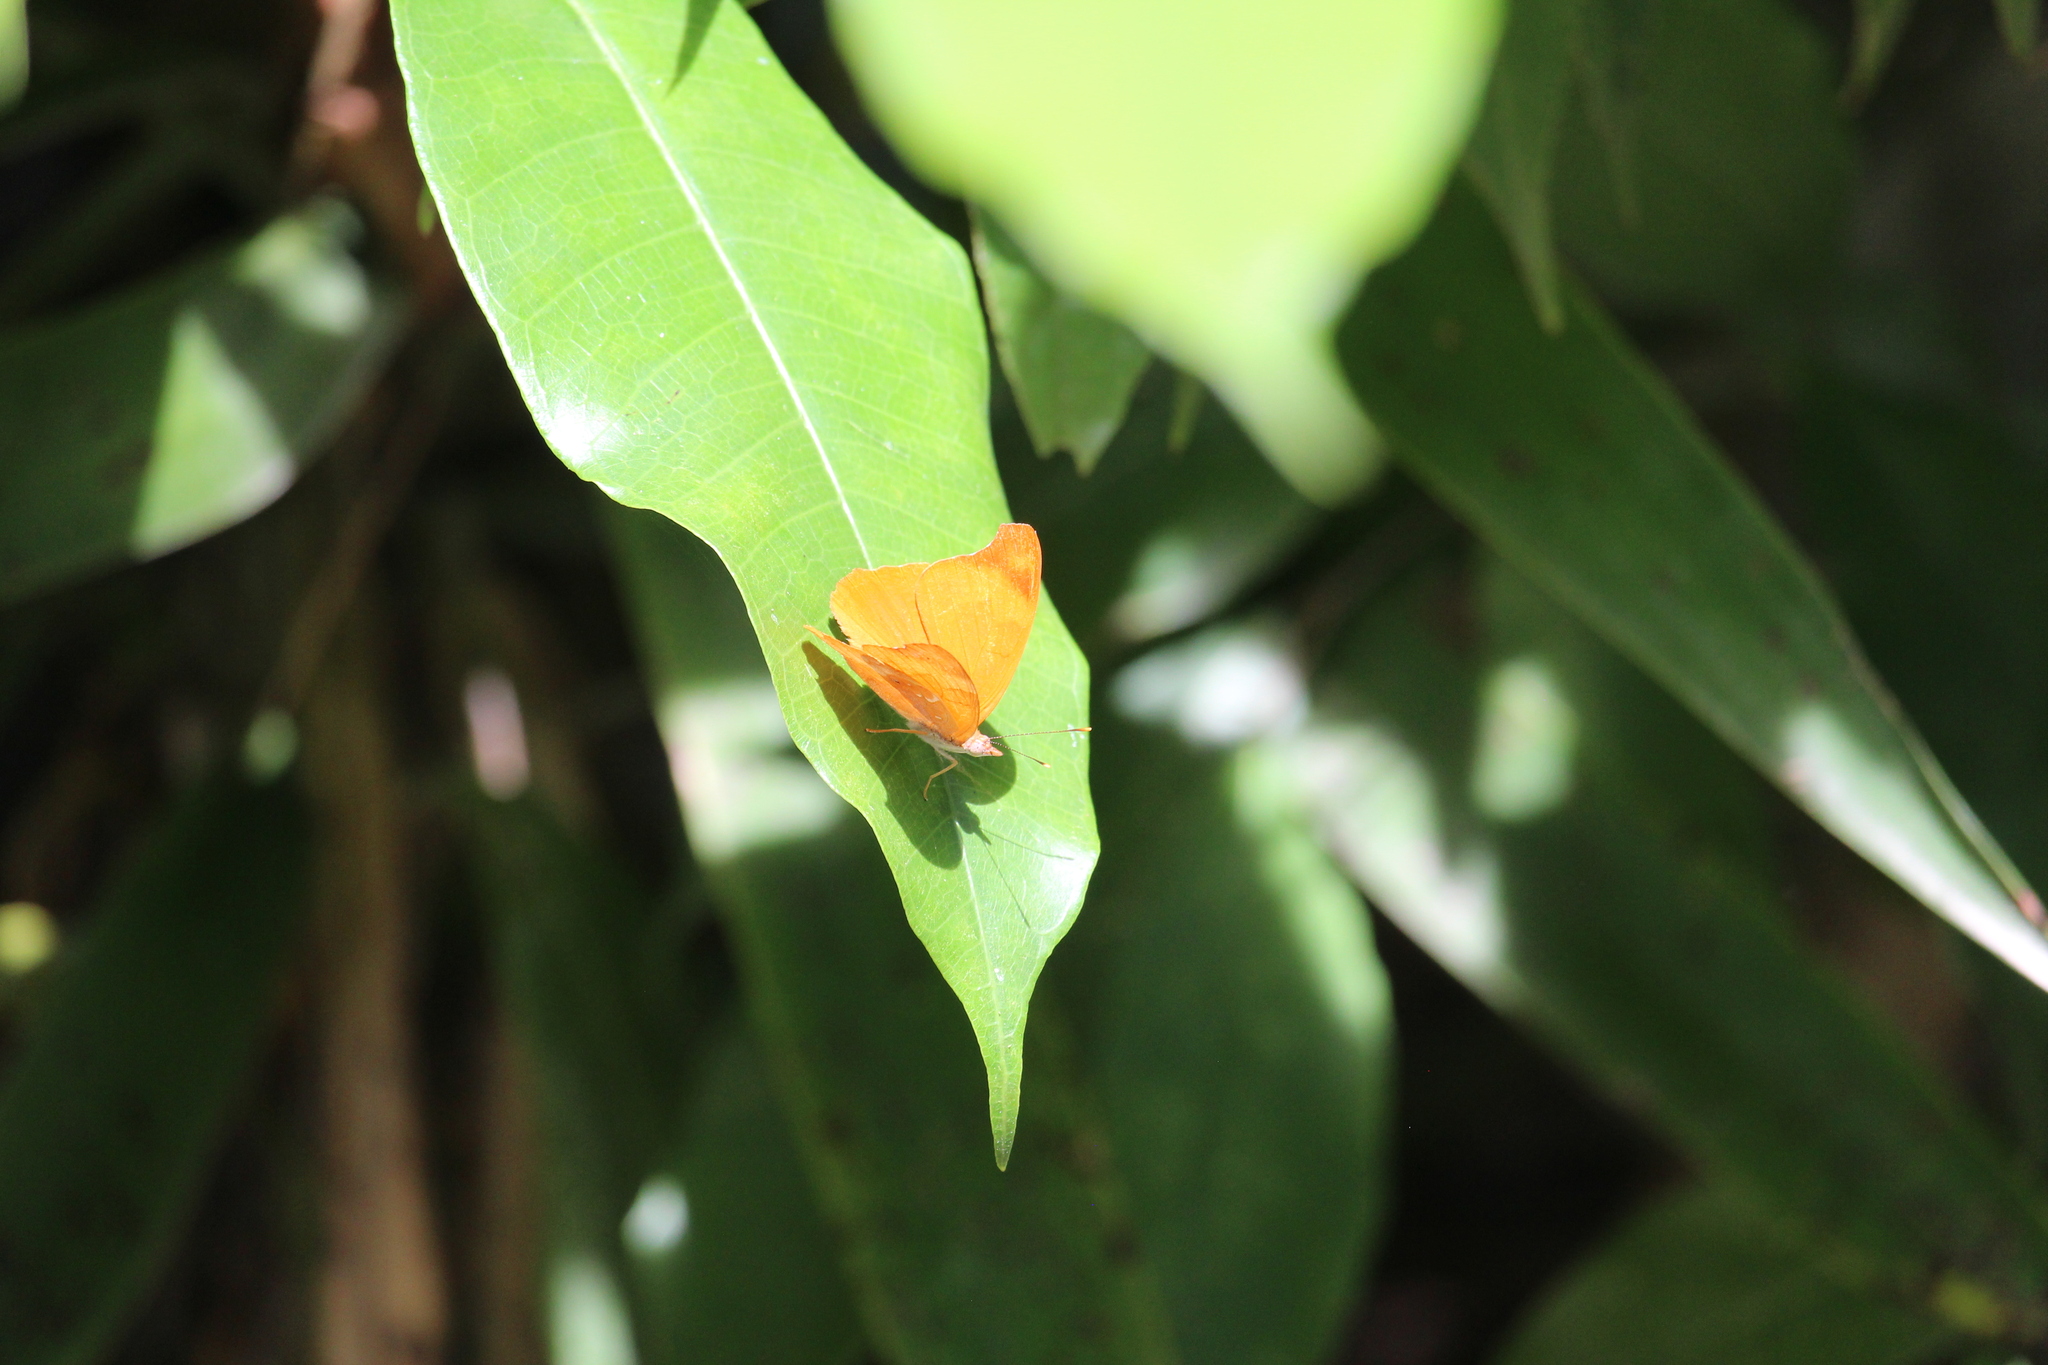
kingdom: Animalia
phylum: Arthropoda
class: Insecta
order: Lepidoptera
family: Nymphalidae
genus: Temenis
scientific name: Temenis laothoe
